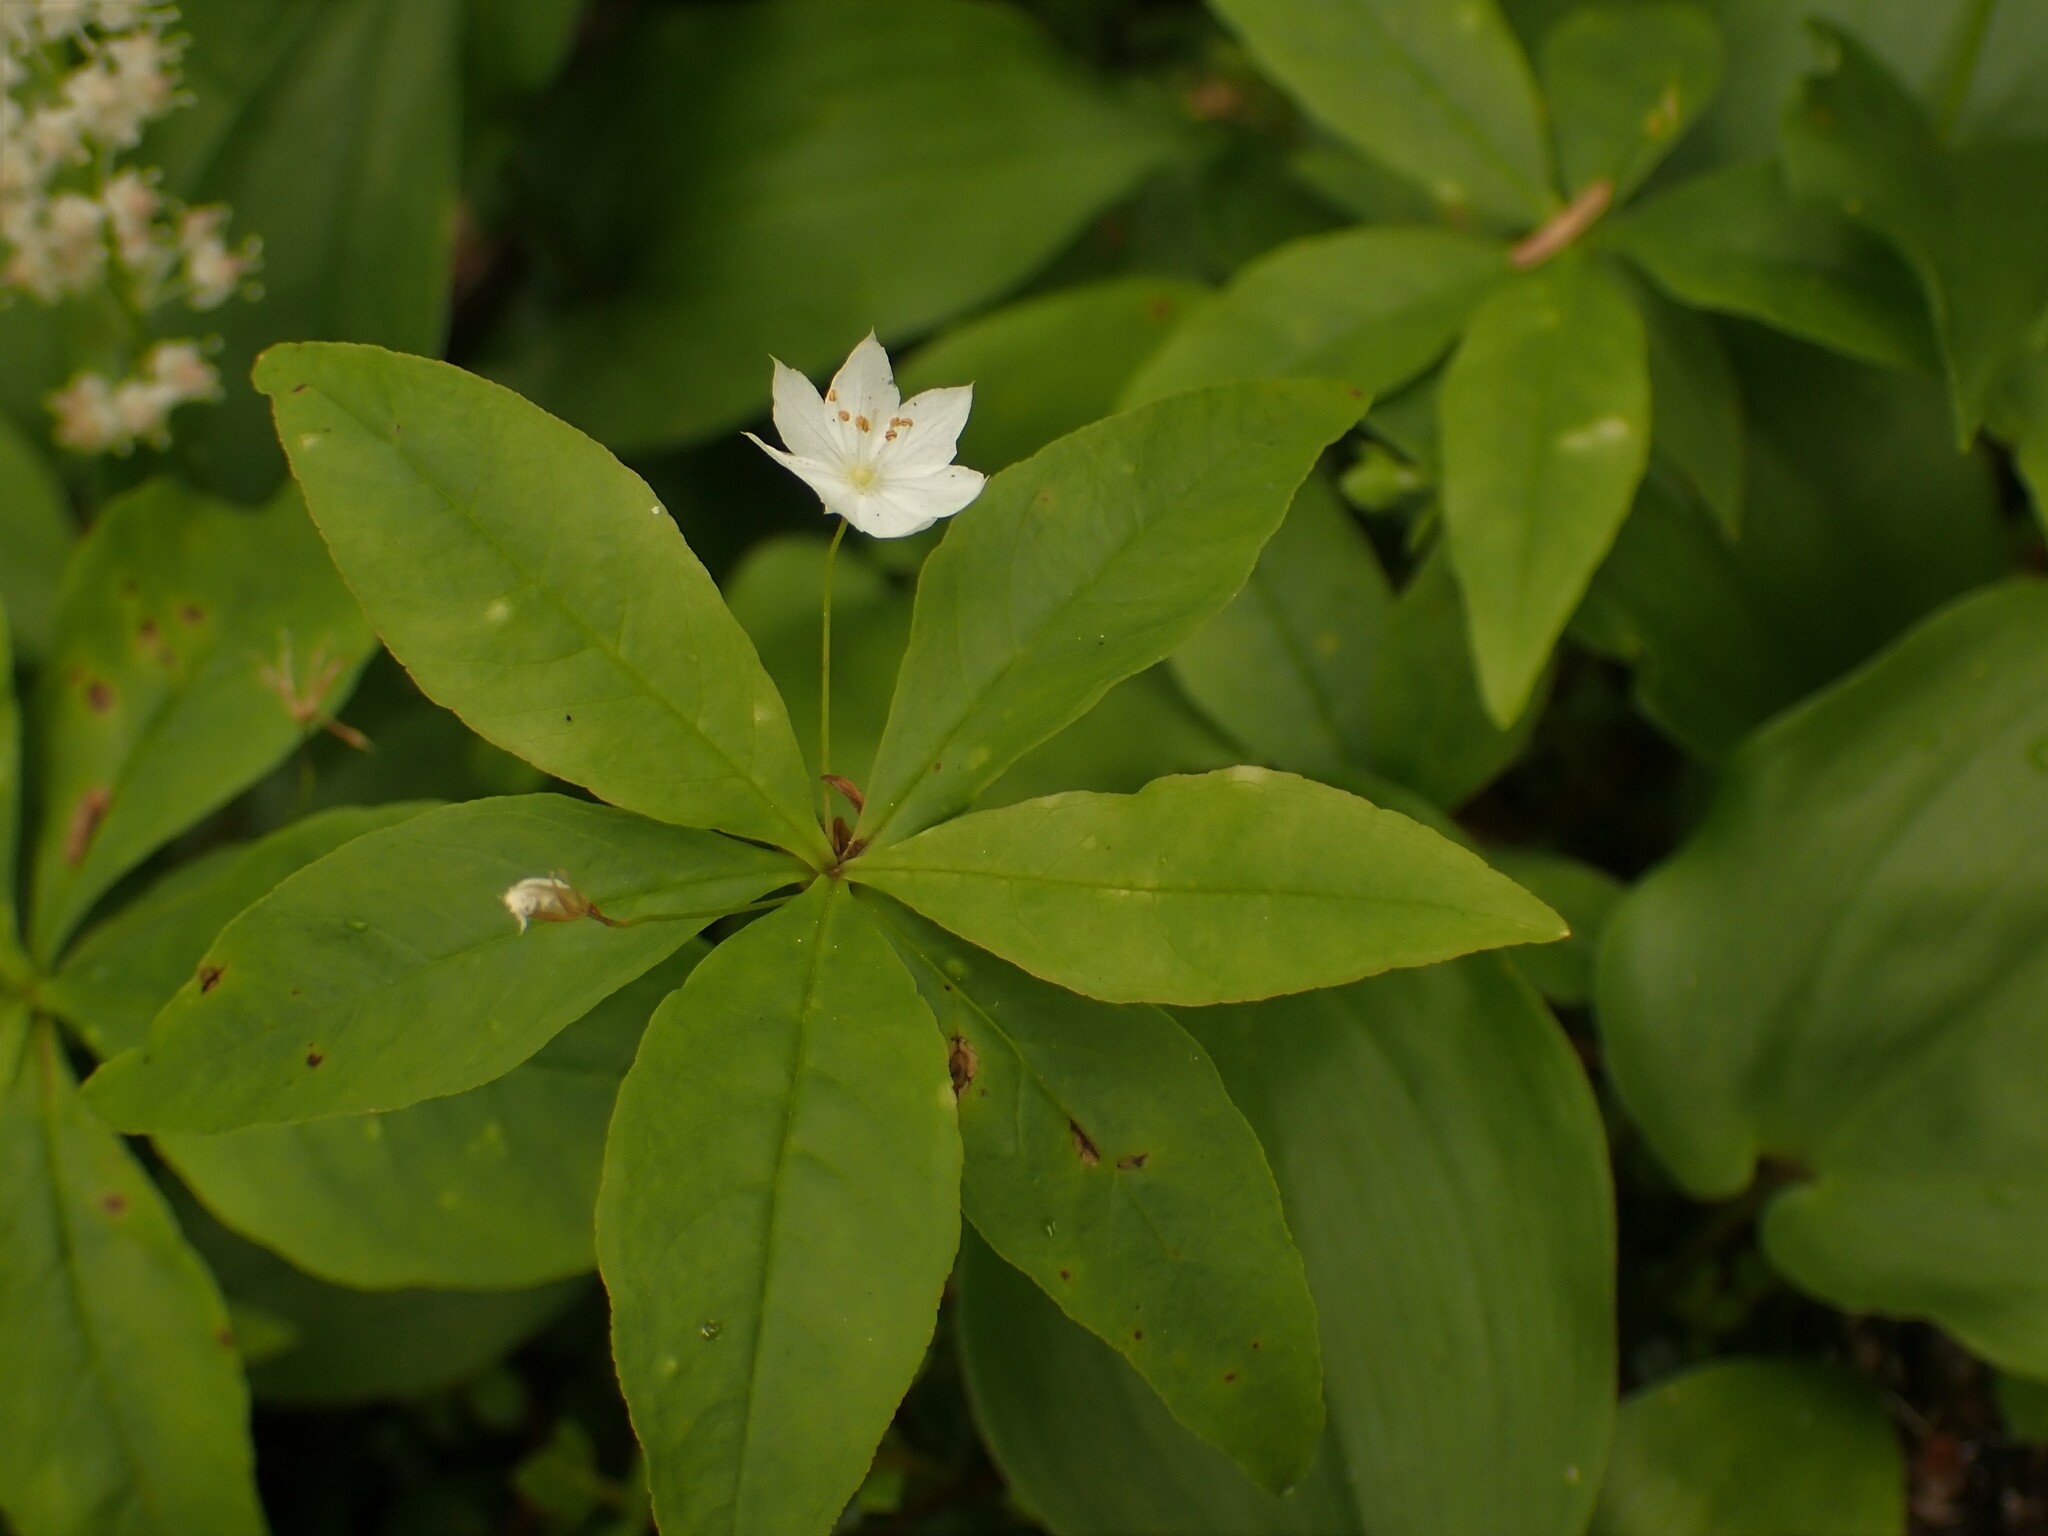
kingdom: Plantae
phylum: Tracheophyta
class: Magnoliopsida
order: Ericales
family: Primulaceae
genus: Lysimachia
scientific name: Lysimachia borealis
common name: American starflower
